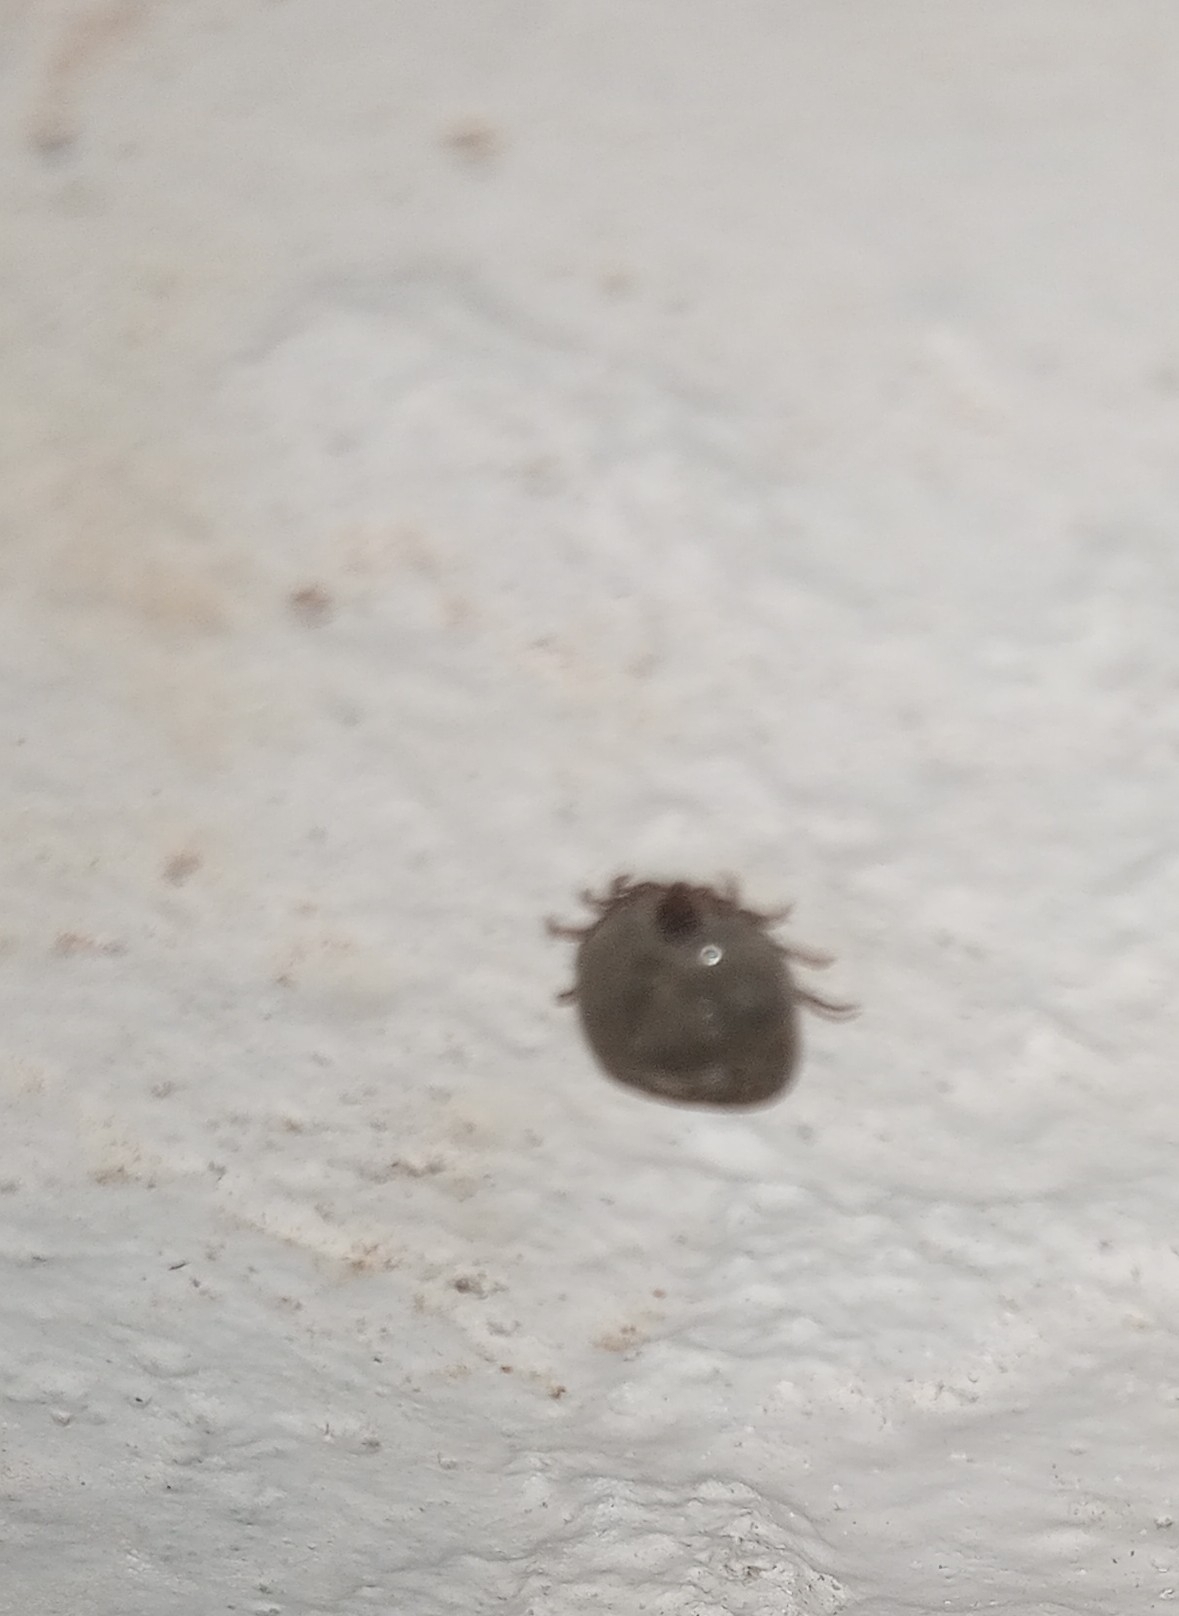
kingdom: Animalia
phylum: Arthropoda
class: Arachnida
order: Ixodida
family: Ixodidae
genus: Rhipicephalus
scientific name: Rhipicephalus sanguineus
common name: Brown dog tick
